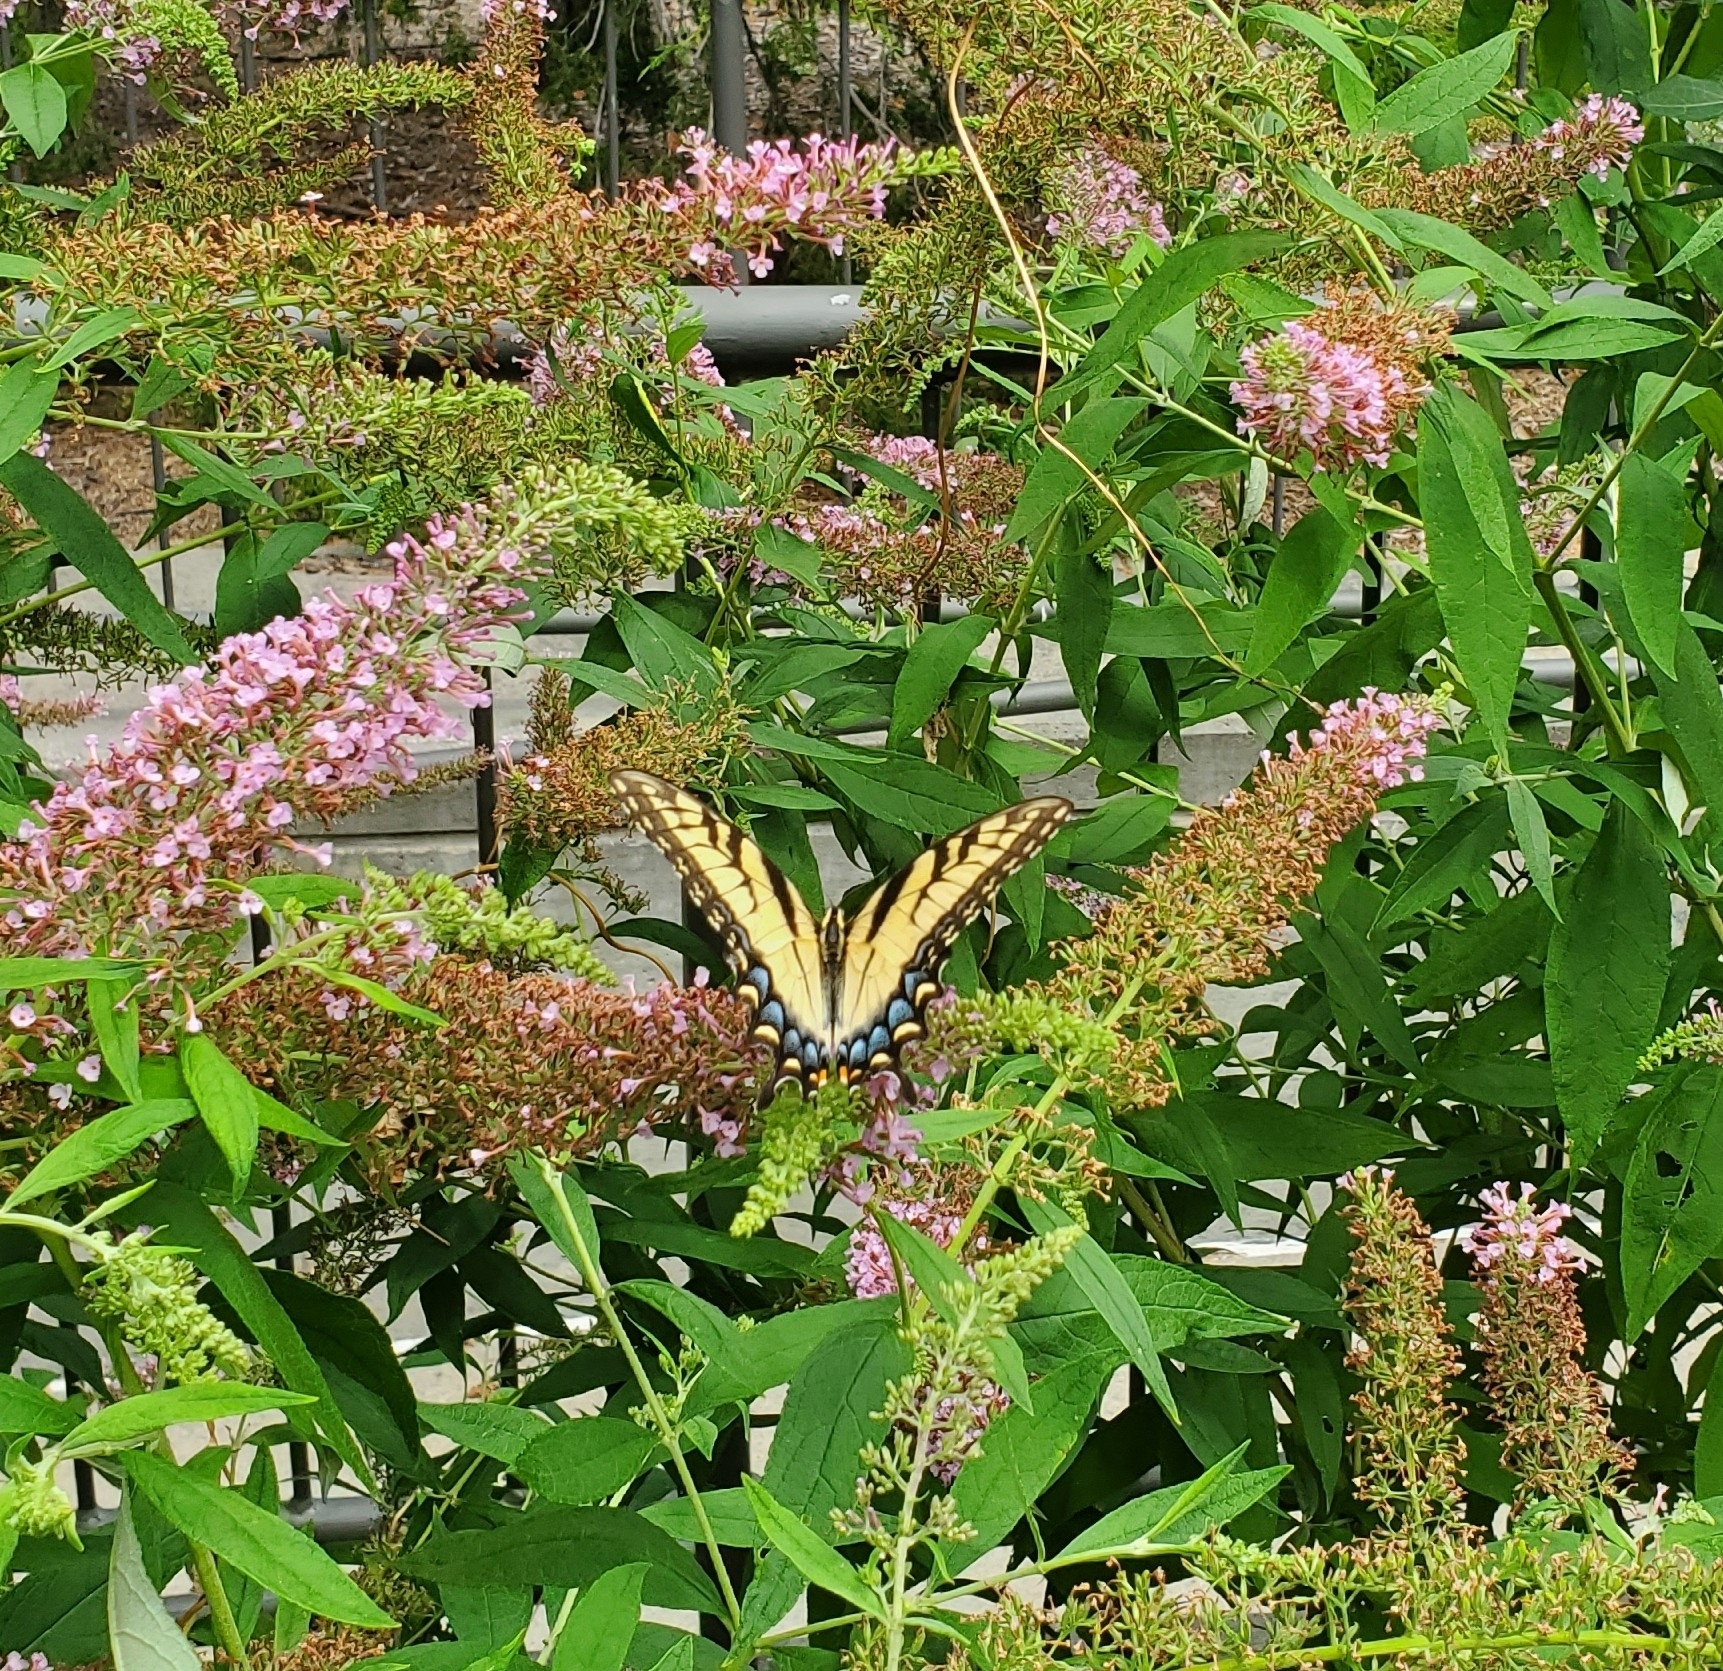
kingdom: Animalia
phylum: Arthropoda
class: Insecta
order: Lepidoptera
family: Papilionidae
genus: Papilio
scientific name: Papilio glaucus
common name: Tiger swallowtail
